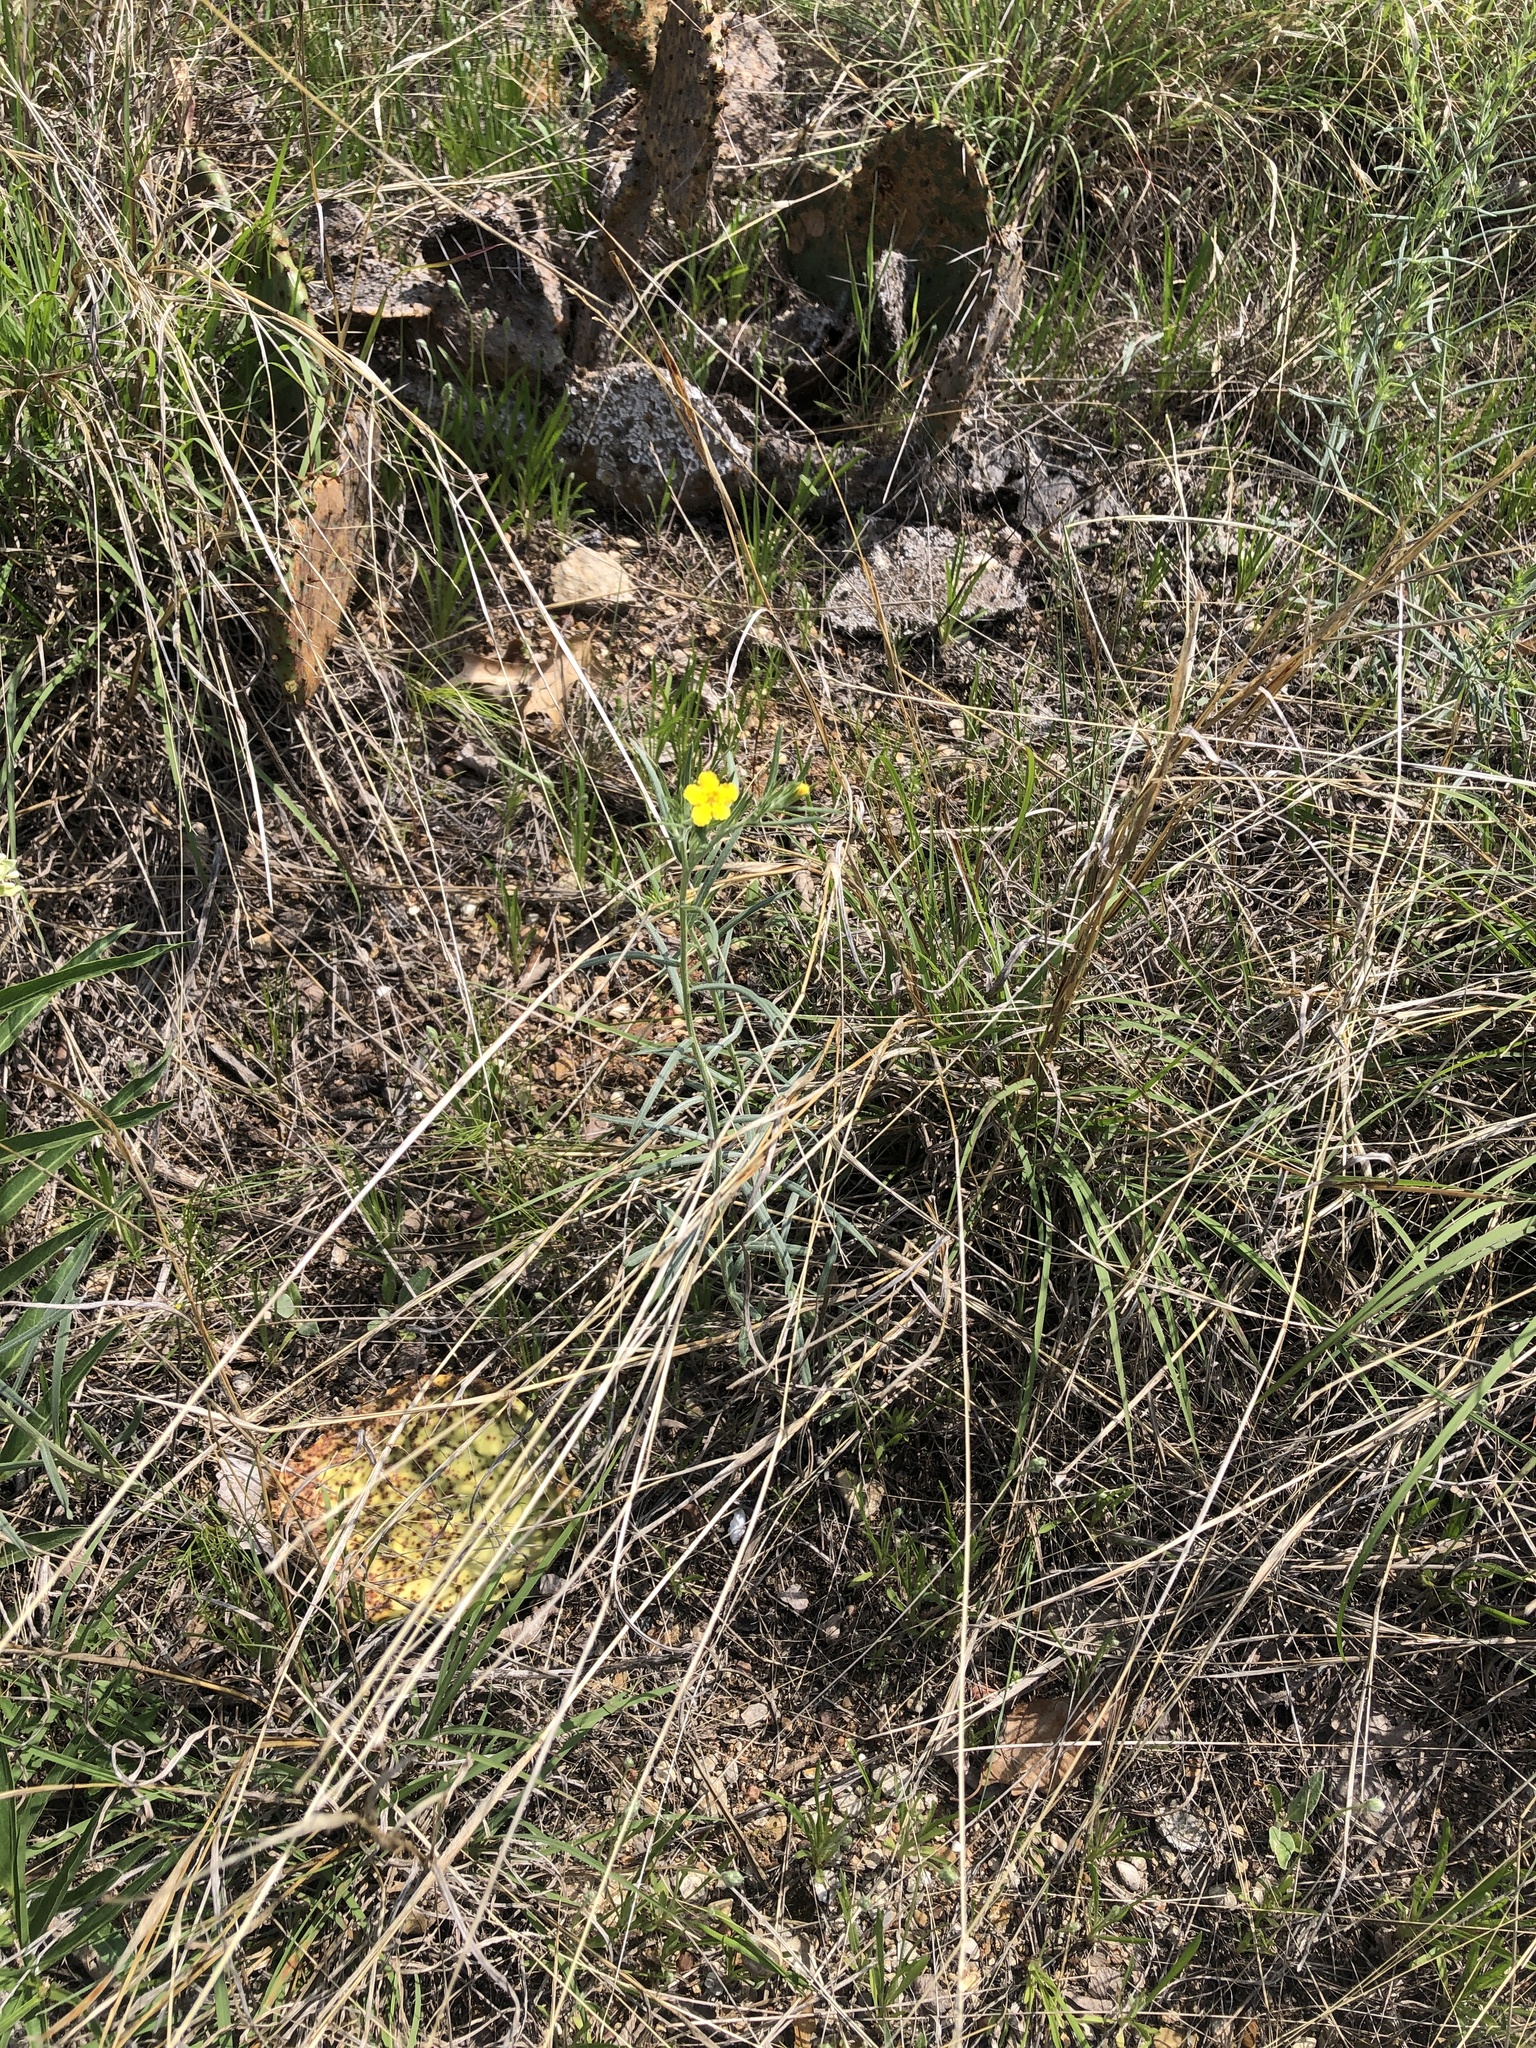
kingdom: Plantae
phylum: Tracheophyta
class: Magnoliopsida
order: Boraginales
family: Boraginaceae
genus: Lithospermum
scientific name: Lithospermum incisum
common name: Fringed gromwell
